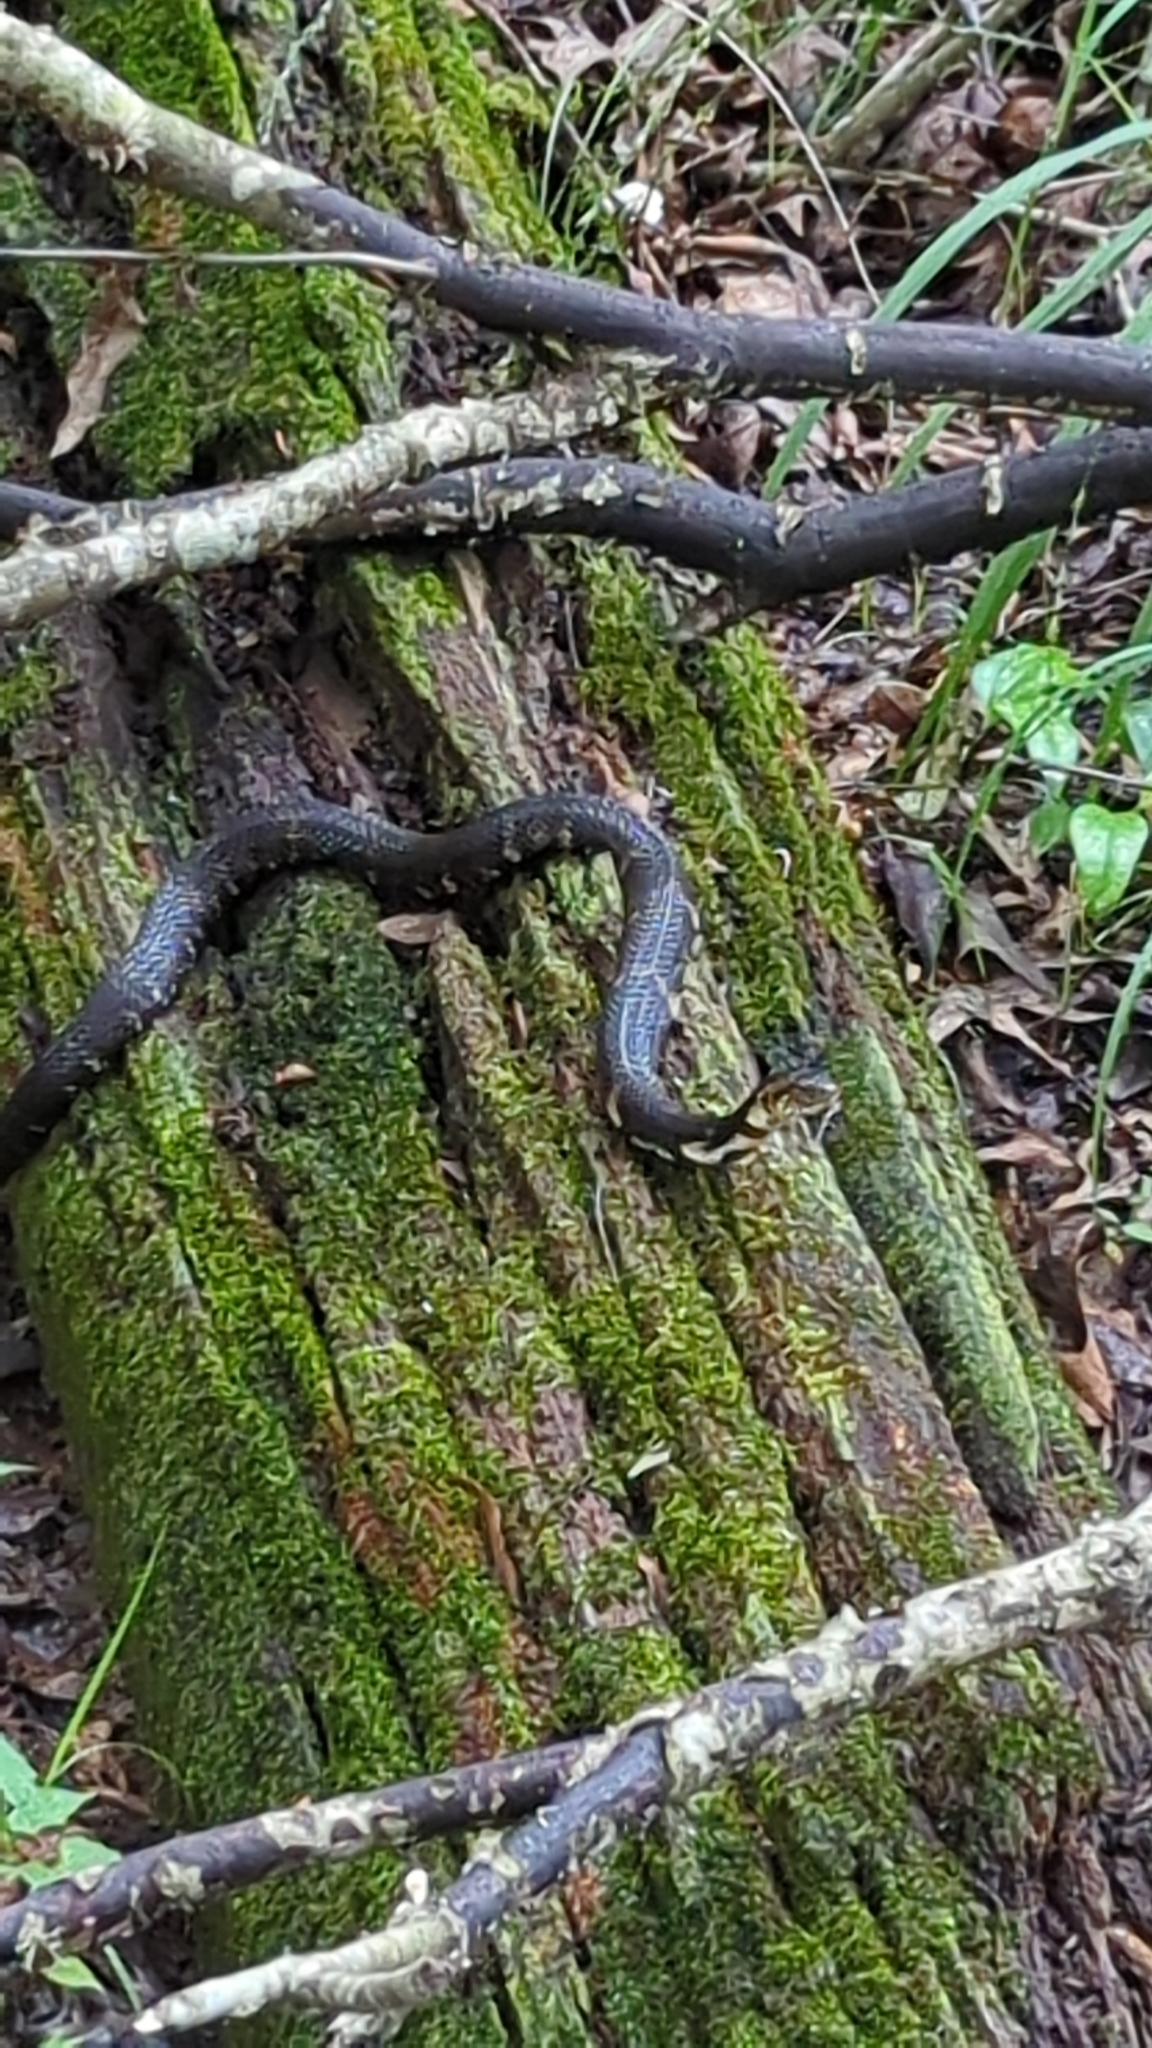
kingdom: Animalia
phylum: Chordata
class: Squamata
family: Colubridae
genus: Nerodia
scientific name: Nerodia fasciata
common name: Southern water snake
